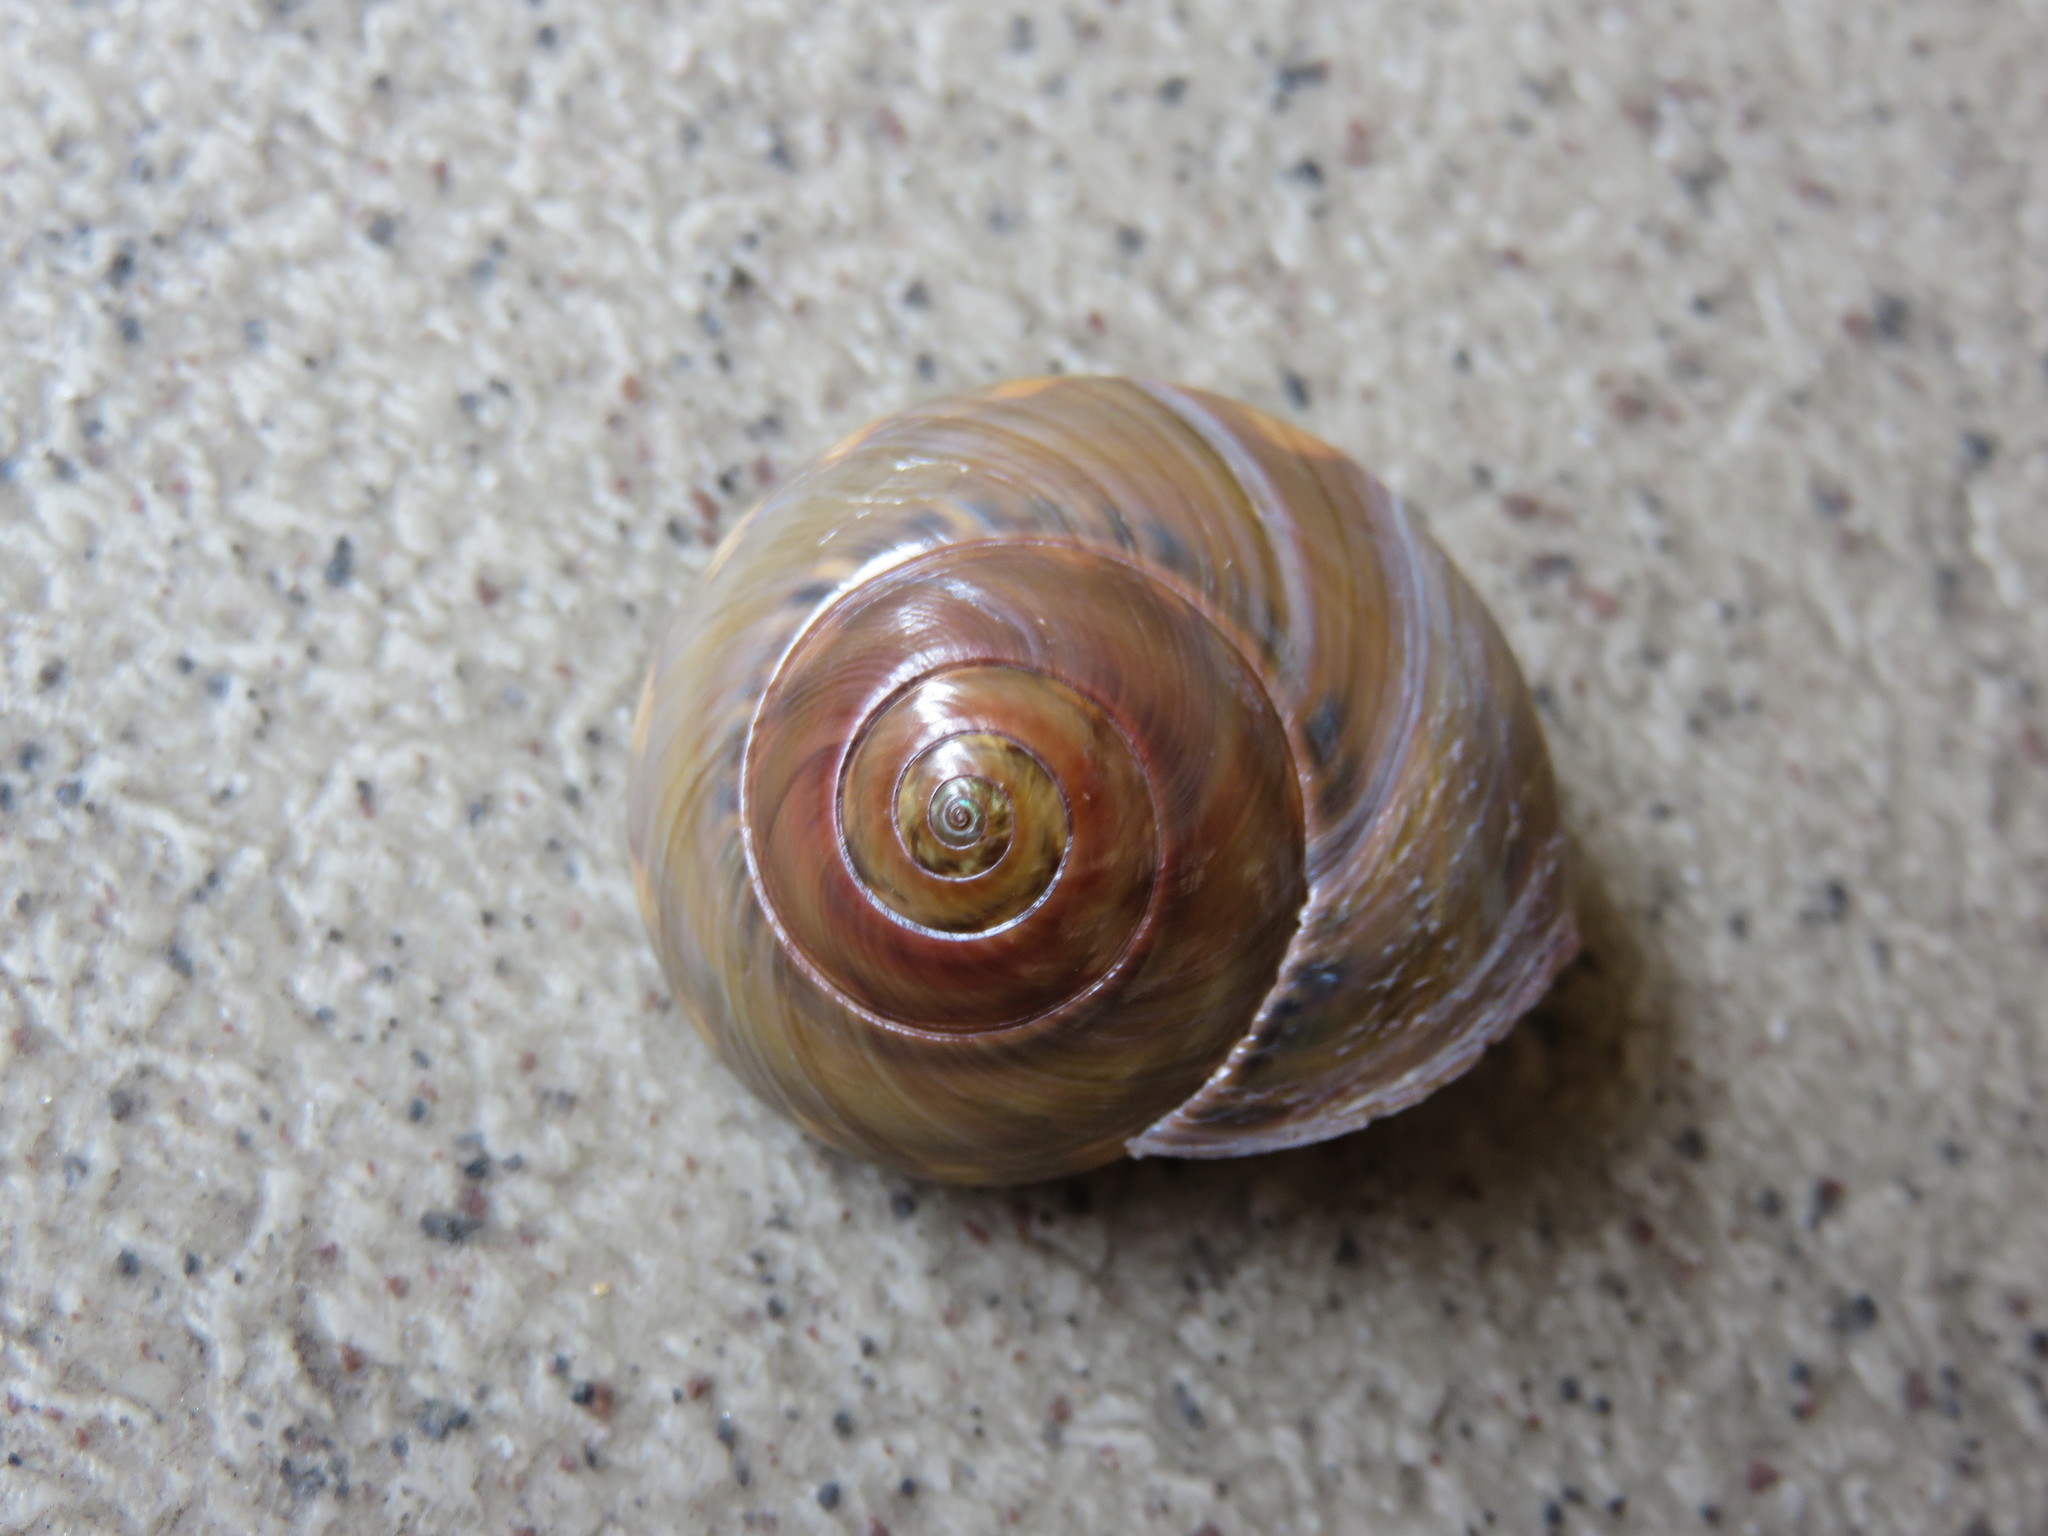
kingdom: Animalia
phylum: Mollusca
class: Gastropoda
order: Trochida
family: Trochidae
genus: Umbonium
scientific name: Umbonium giganteum
